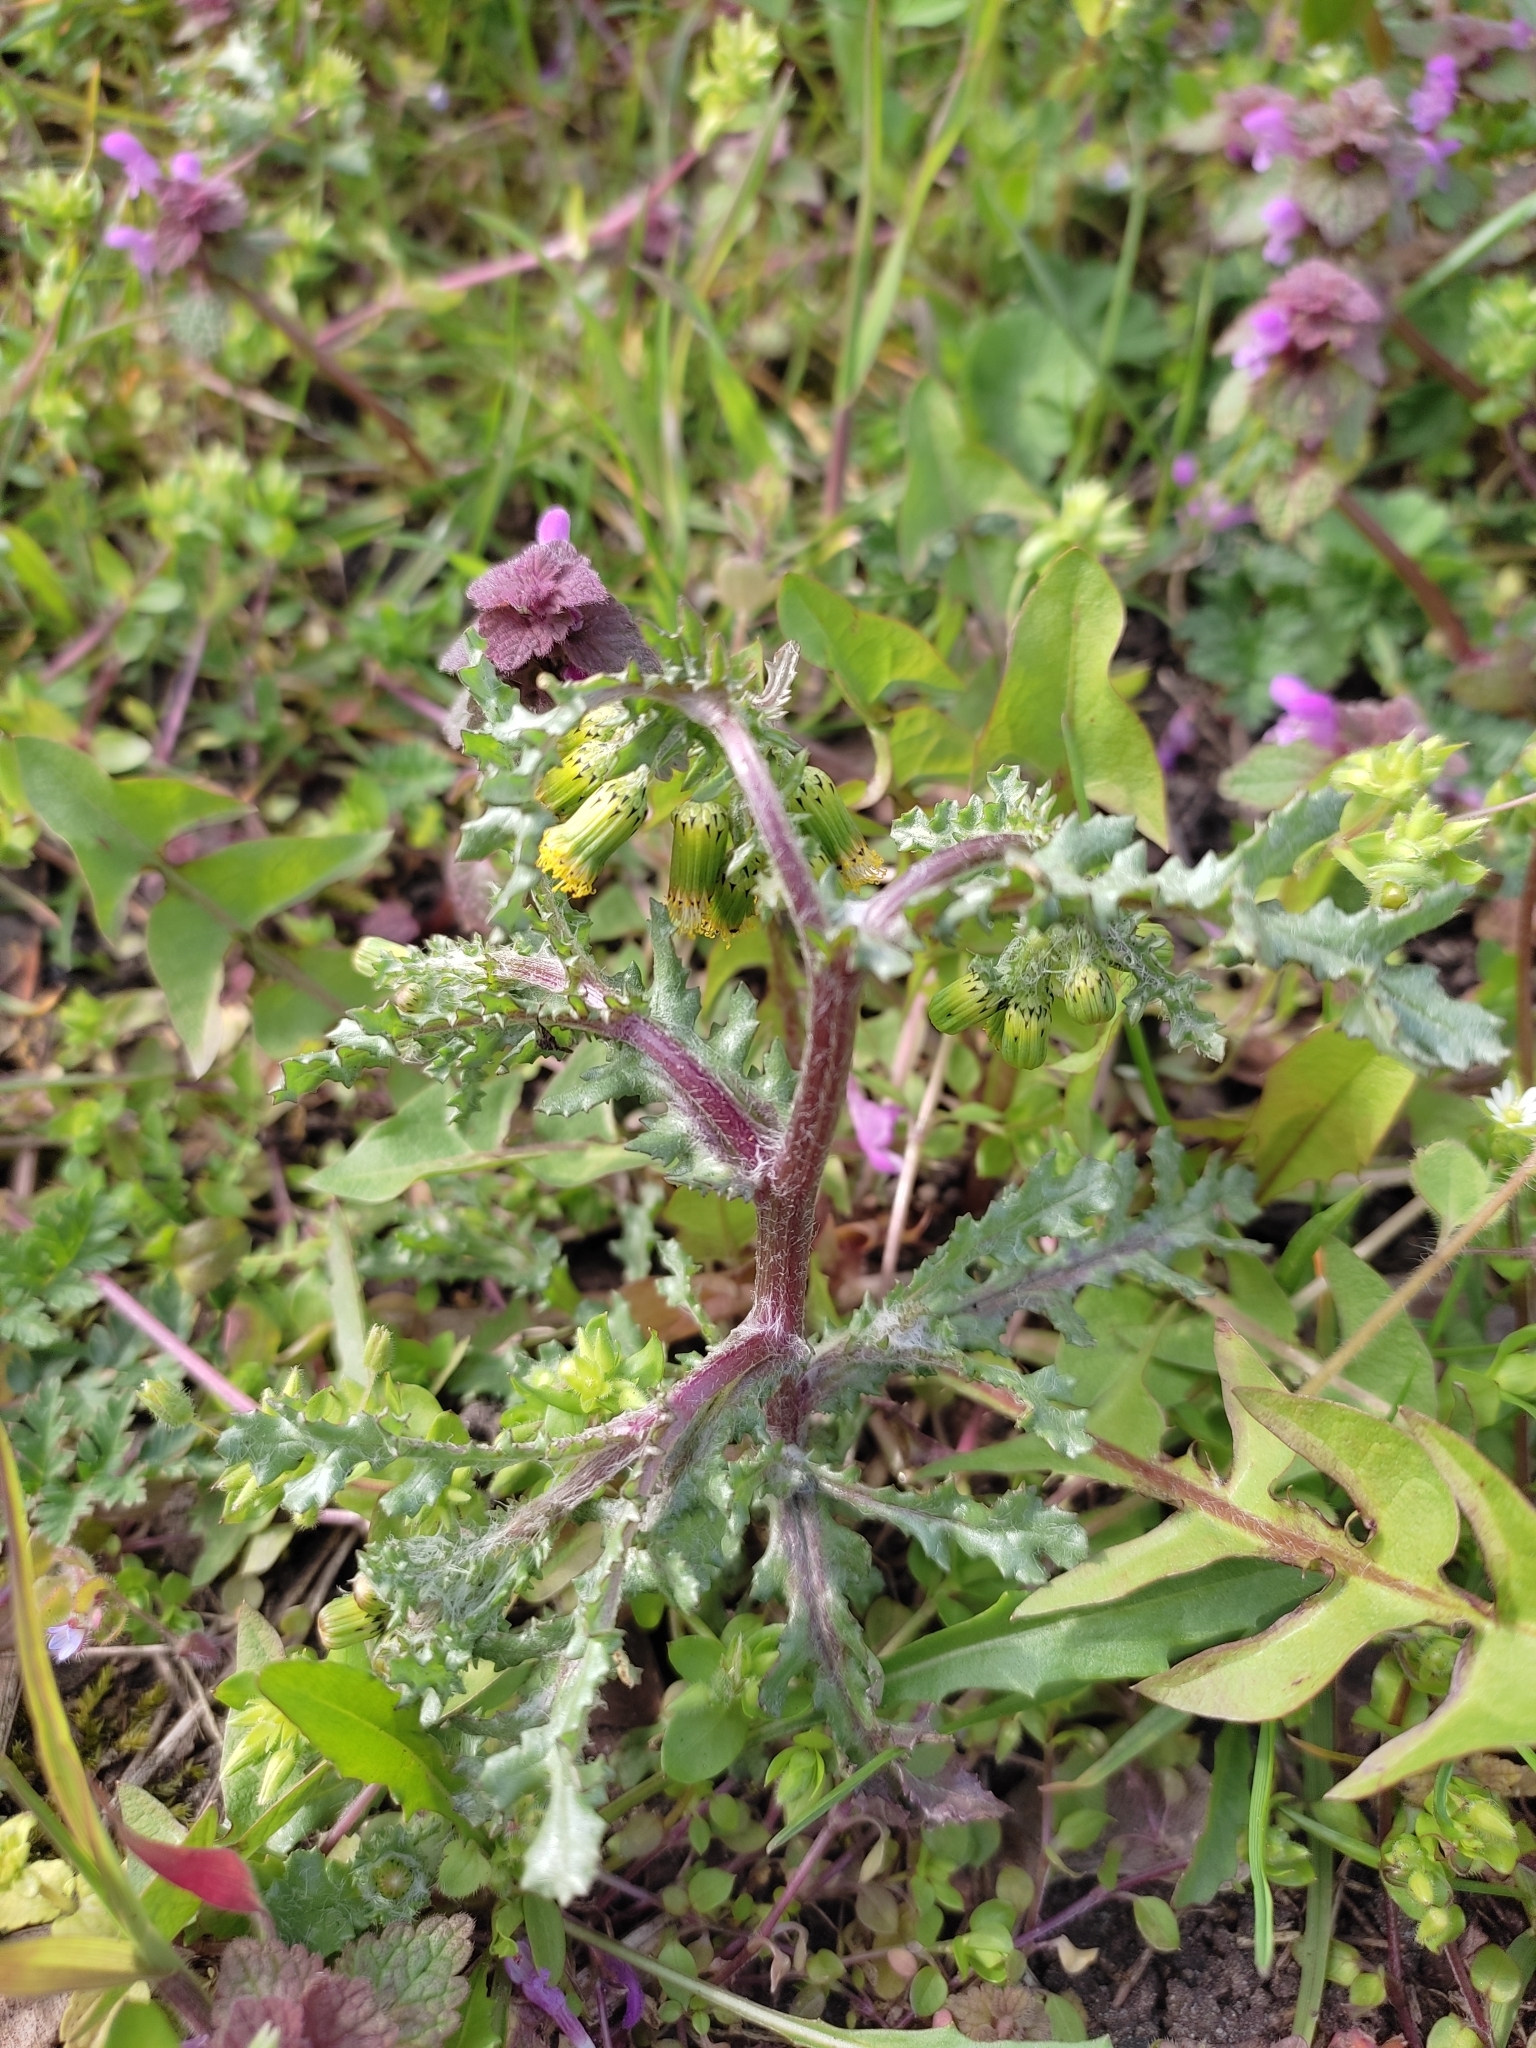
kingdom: Plantae
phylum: Tracheophyta
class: Magnoliopsida
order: Asterales
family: Asteraceae
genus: Senecio
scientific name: Senecio vulgaris
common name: Old-man-in-the-spring
